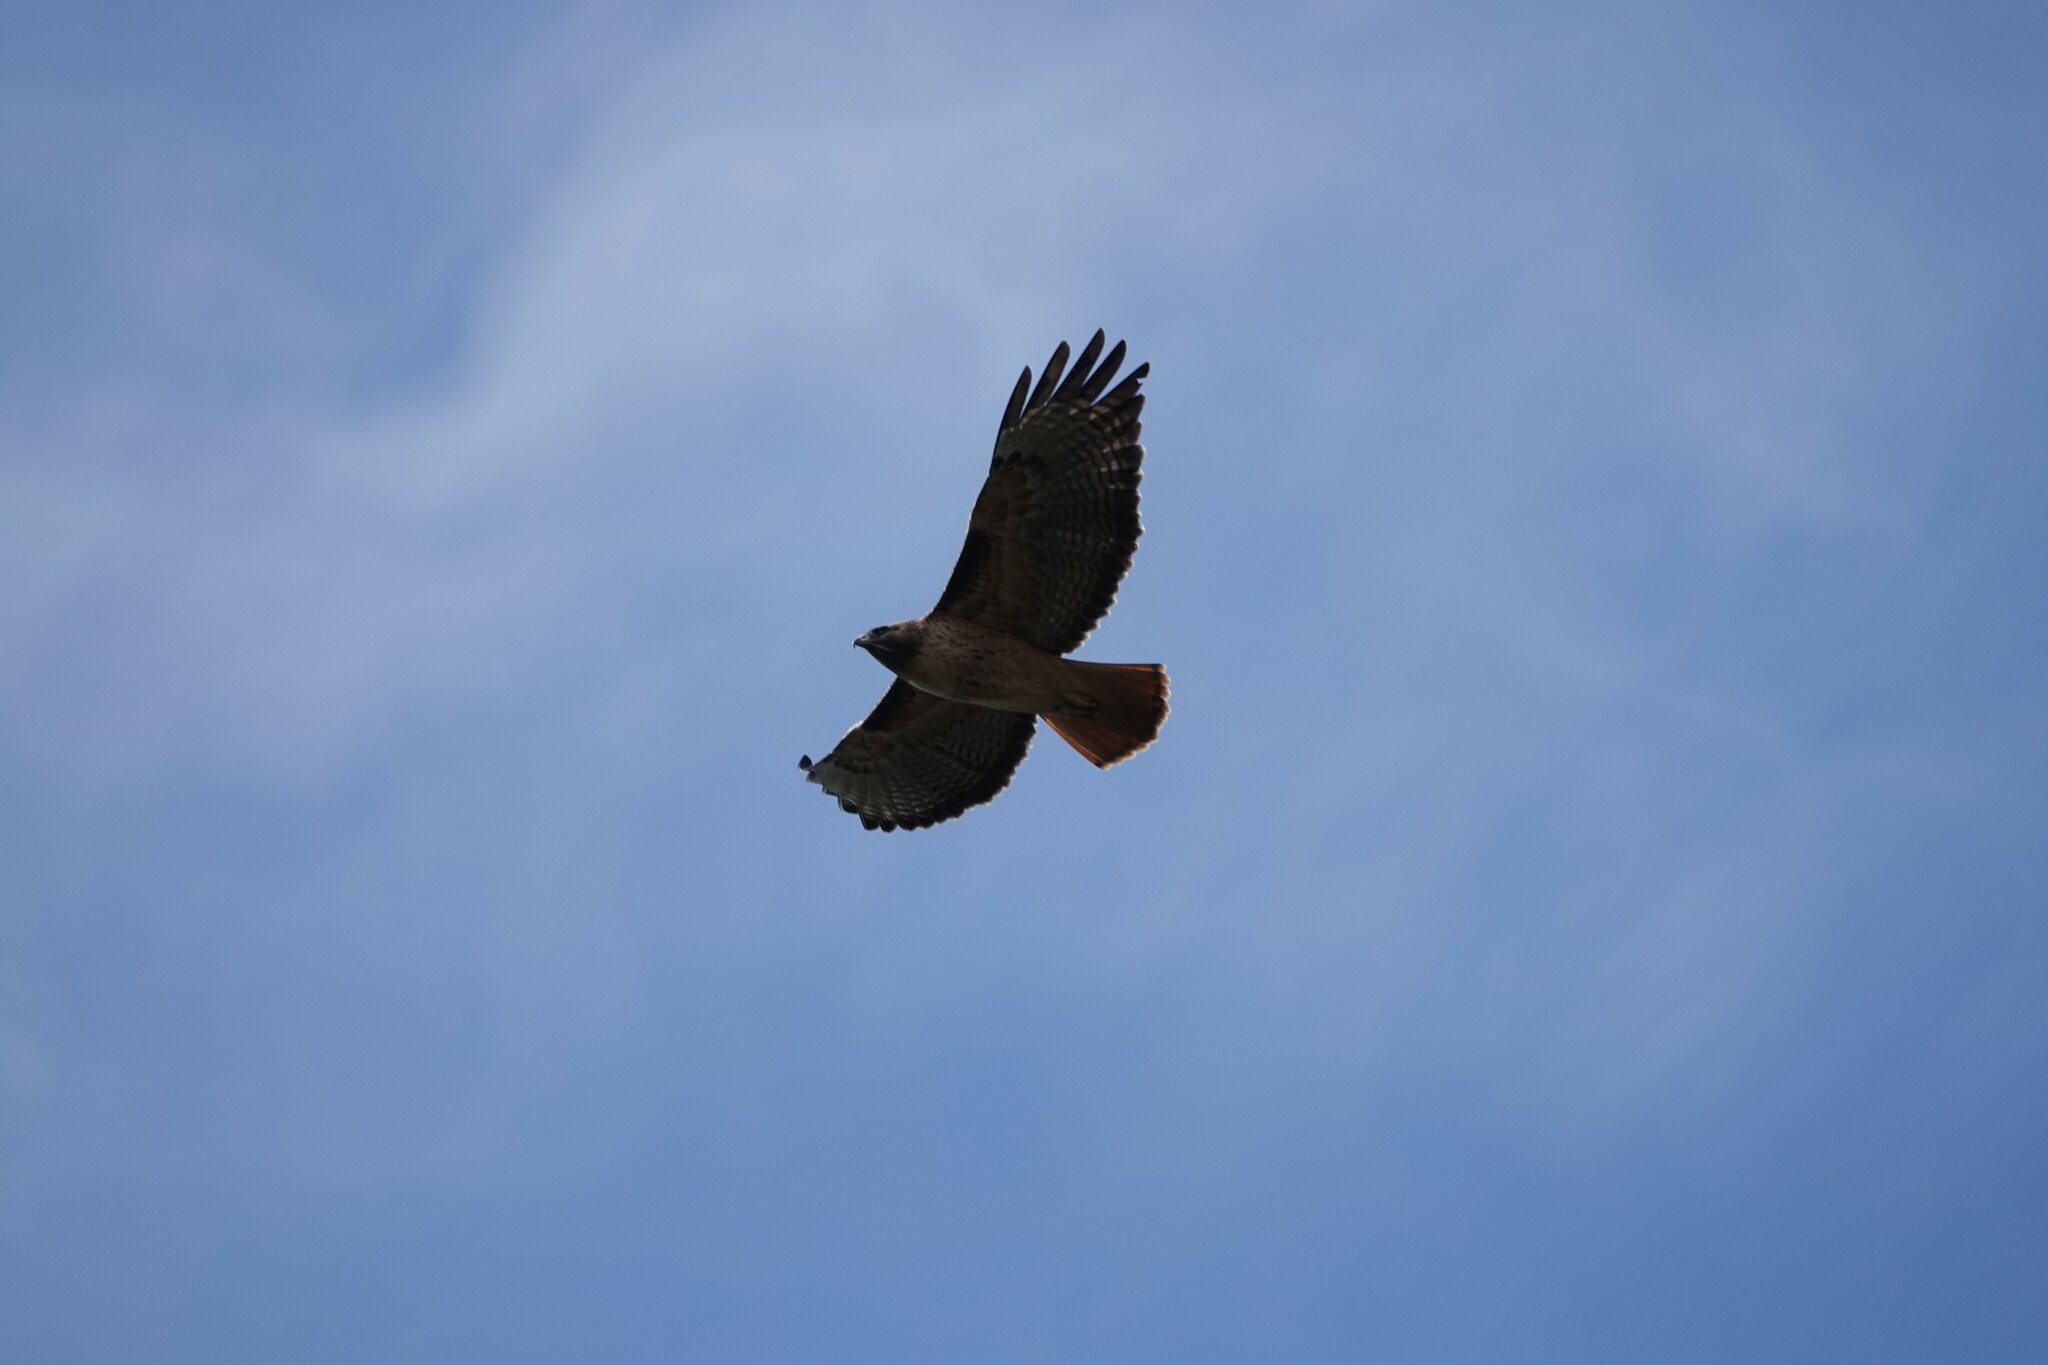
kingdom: Animalia
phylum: Chordata
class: Aves
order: Accipitriformes
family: Accipitridae
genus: Buteo
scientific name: Buteo jamaicensis
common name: Red-tailed hawk
